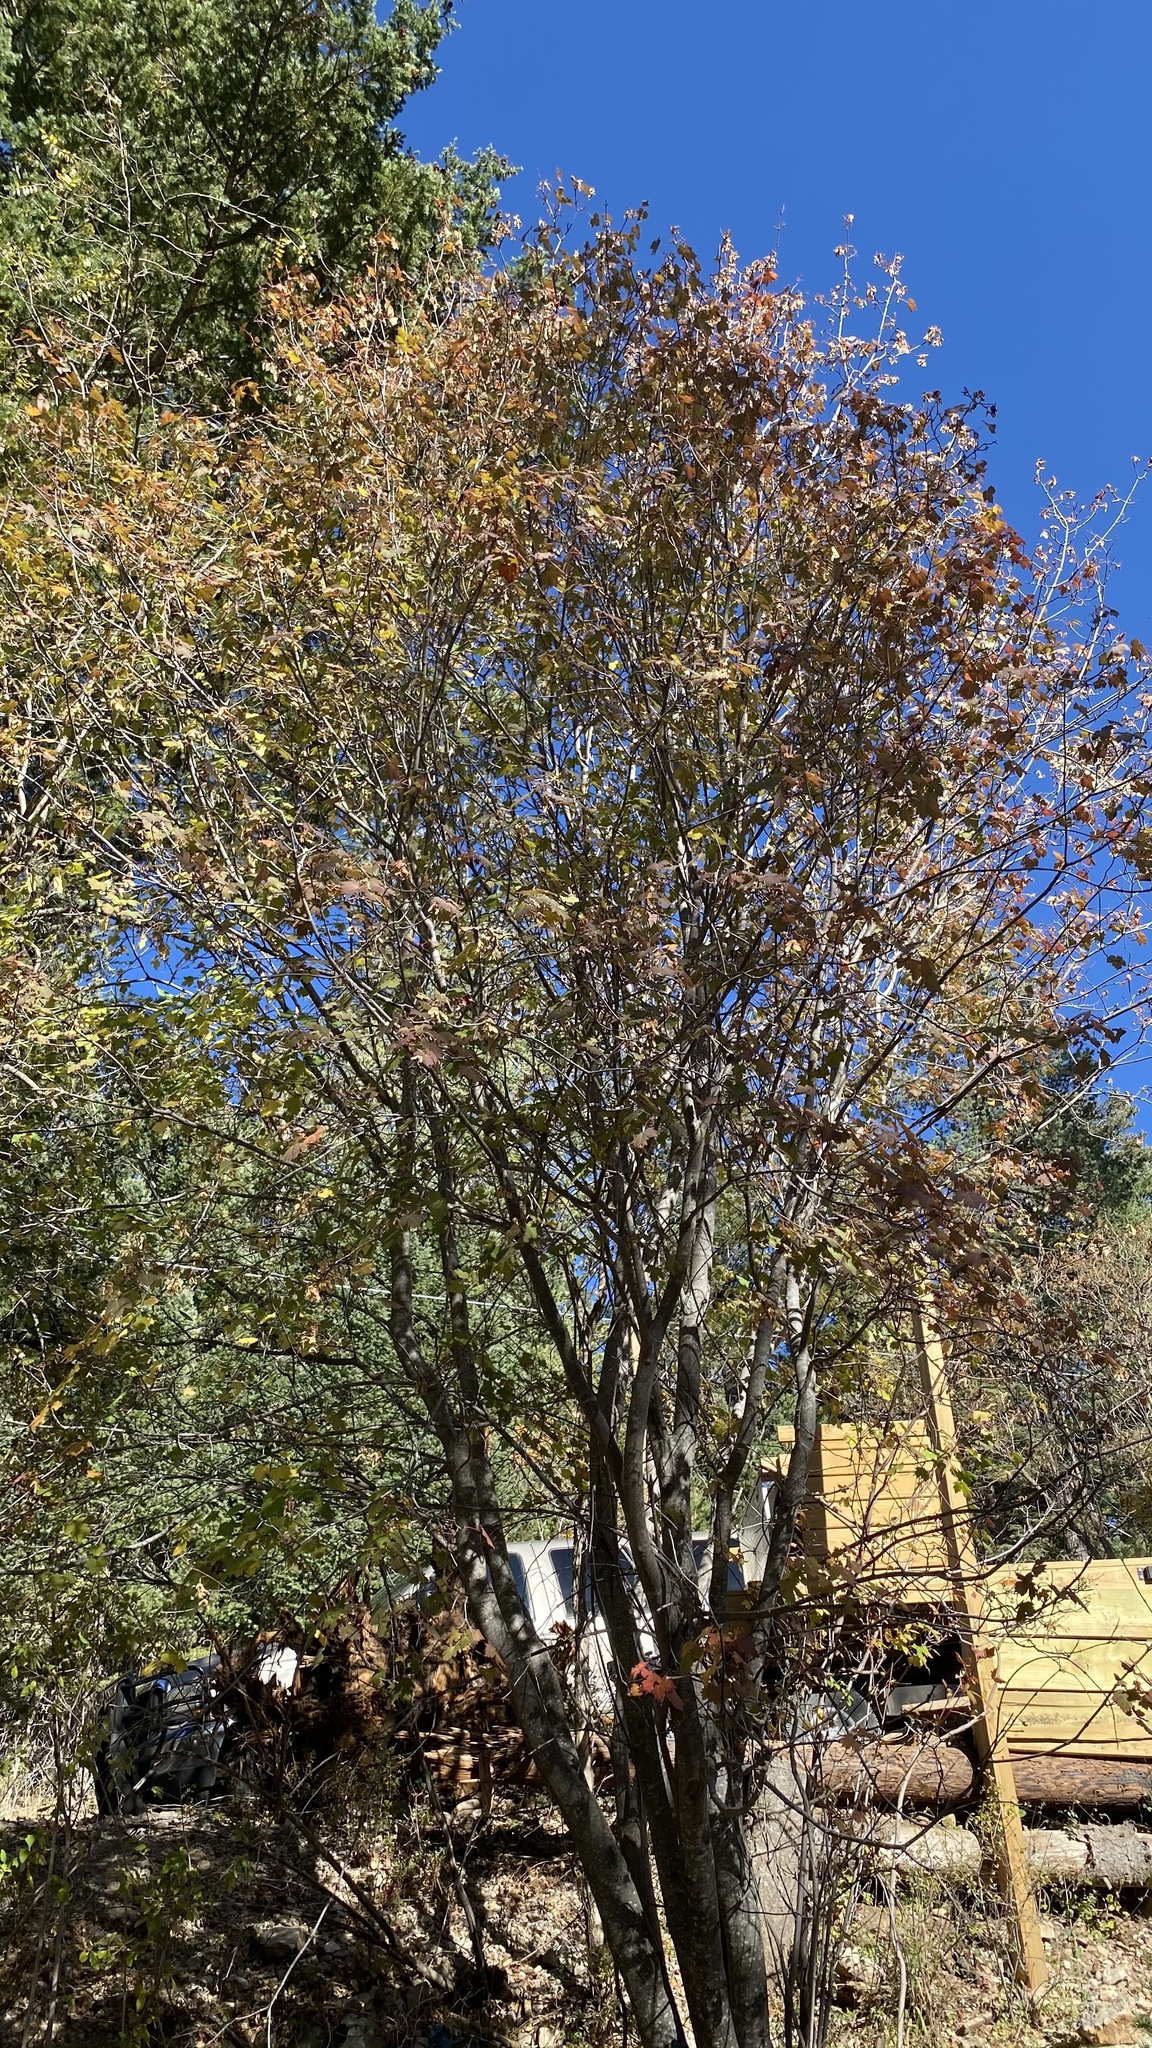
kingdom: Plantae
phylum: Tracheophyta
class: Magnoliopsida
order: Sapindales
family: Sapindaceae
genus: Acer
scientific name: Acer grandidentatum
